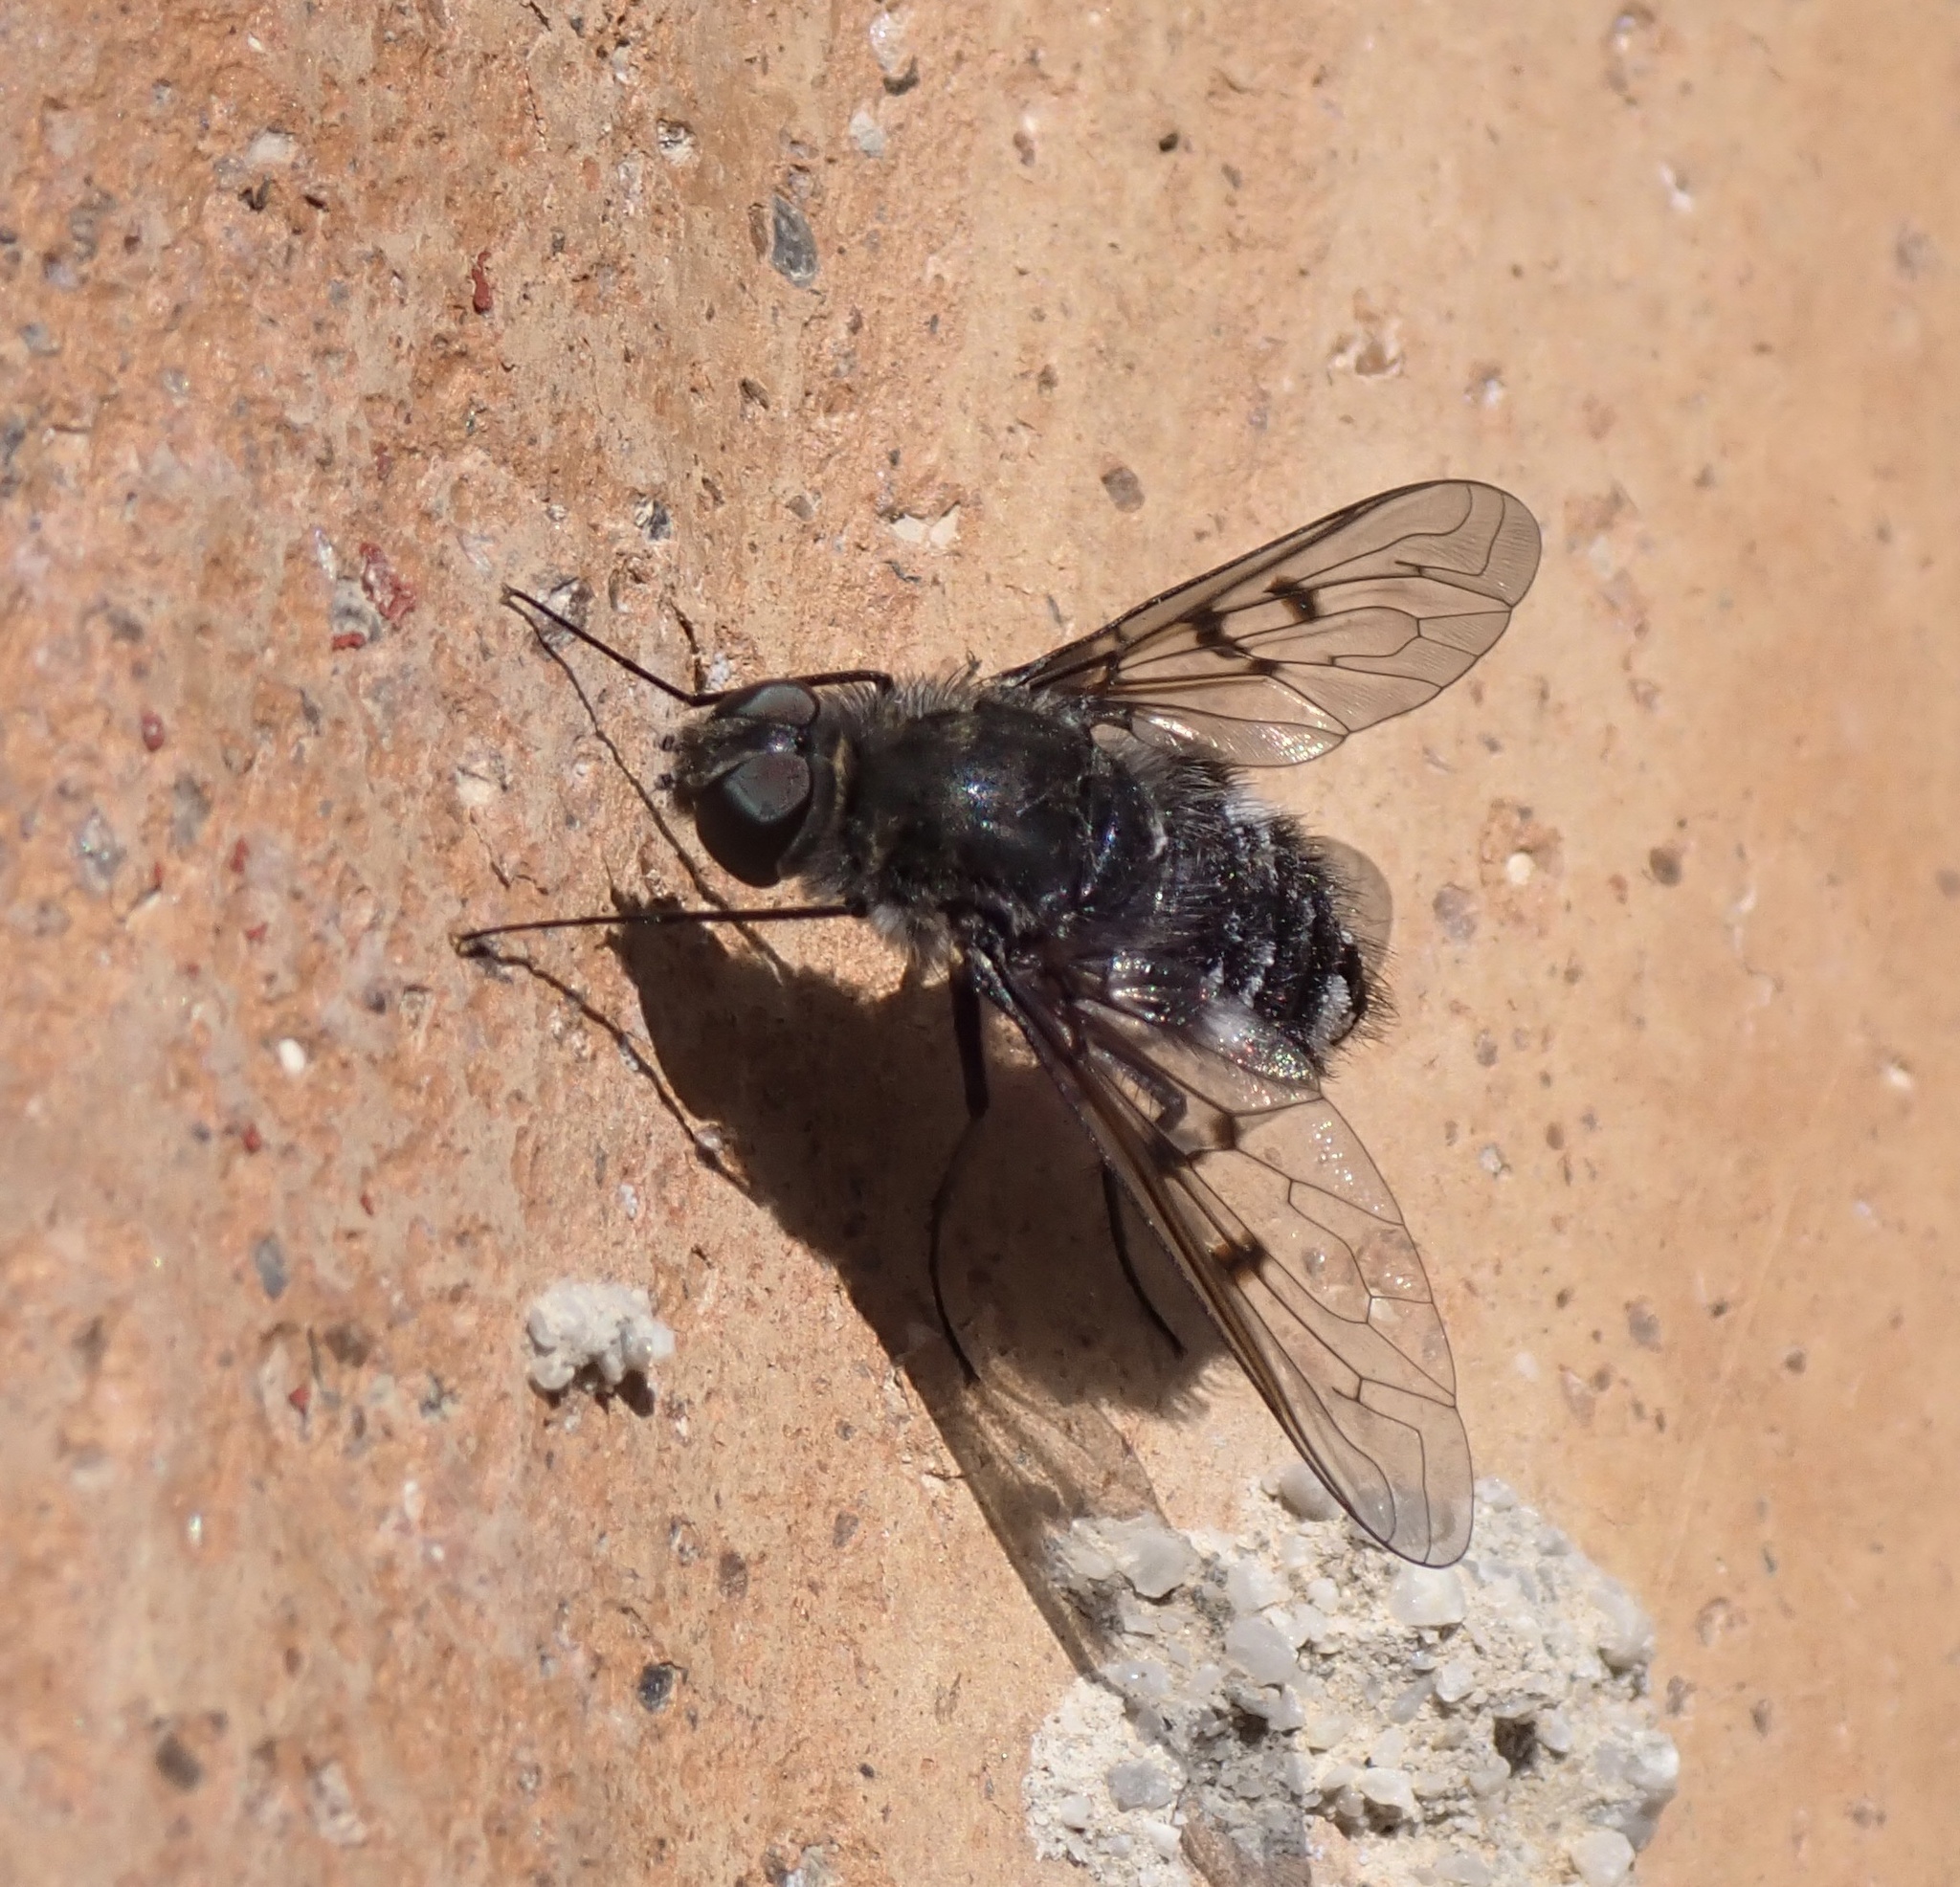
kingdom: Animalia
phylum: Arthropoda
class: Insecta
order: Diptera
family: Bombyliidae
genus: Spogostylum
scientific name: Spogostylum tripunctatum
